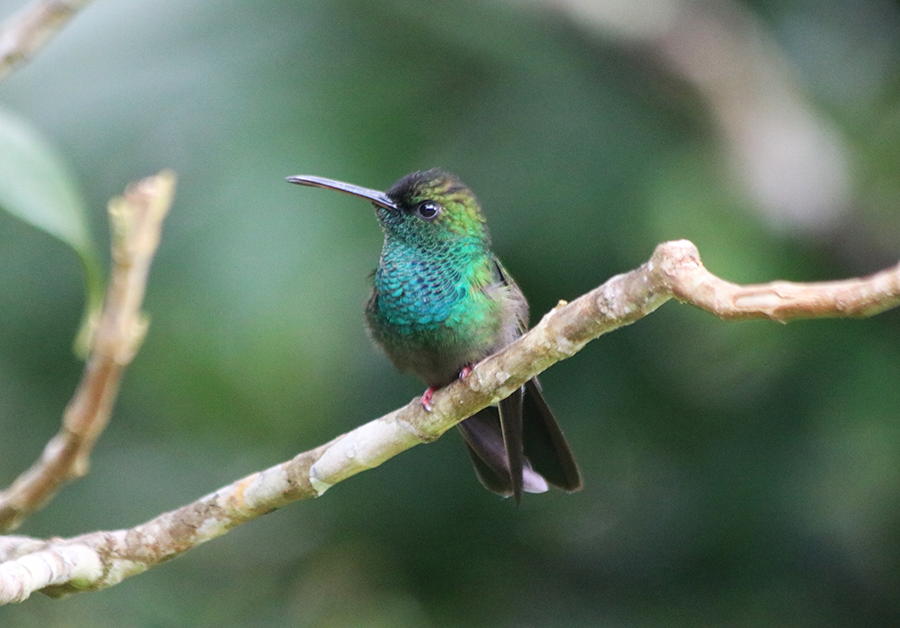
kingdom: Animalia
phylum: Chordata
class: Aves
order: Apodiformes
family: Trochilidae
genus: Chalybura
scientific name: Chalybura urochrysia
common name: Bronze-tailed plumeleteer
